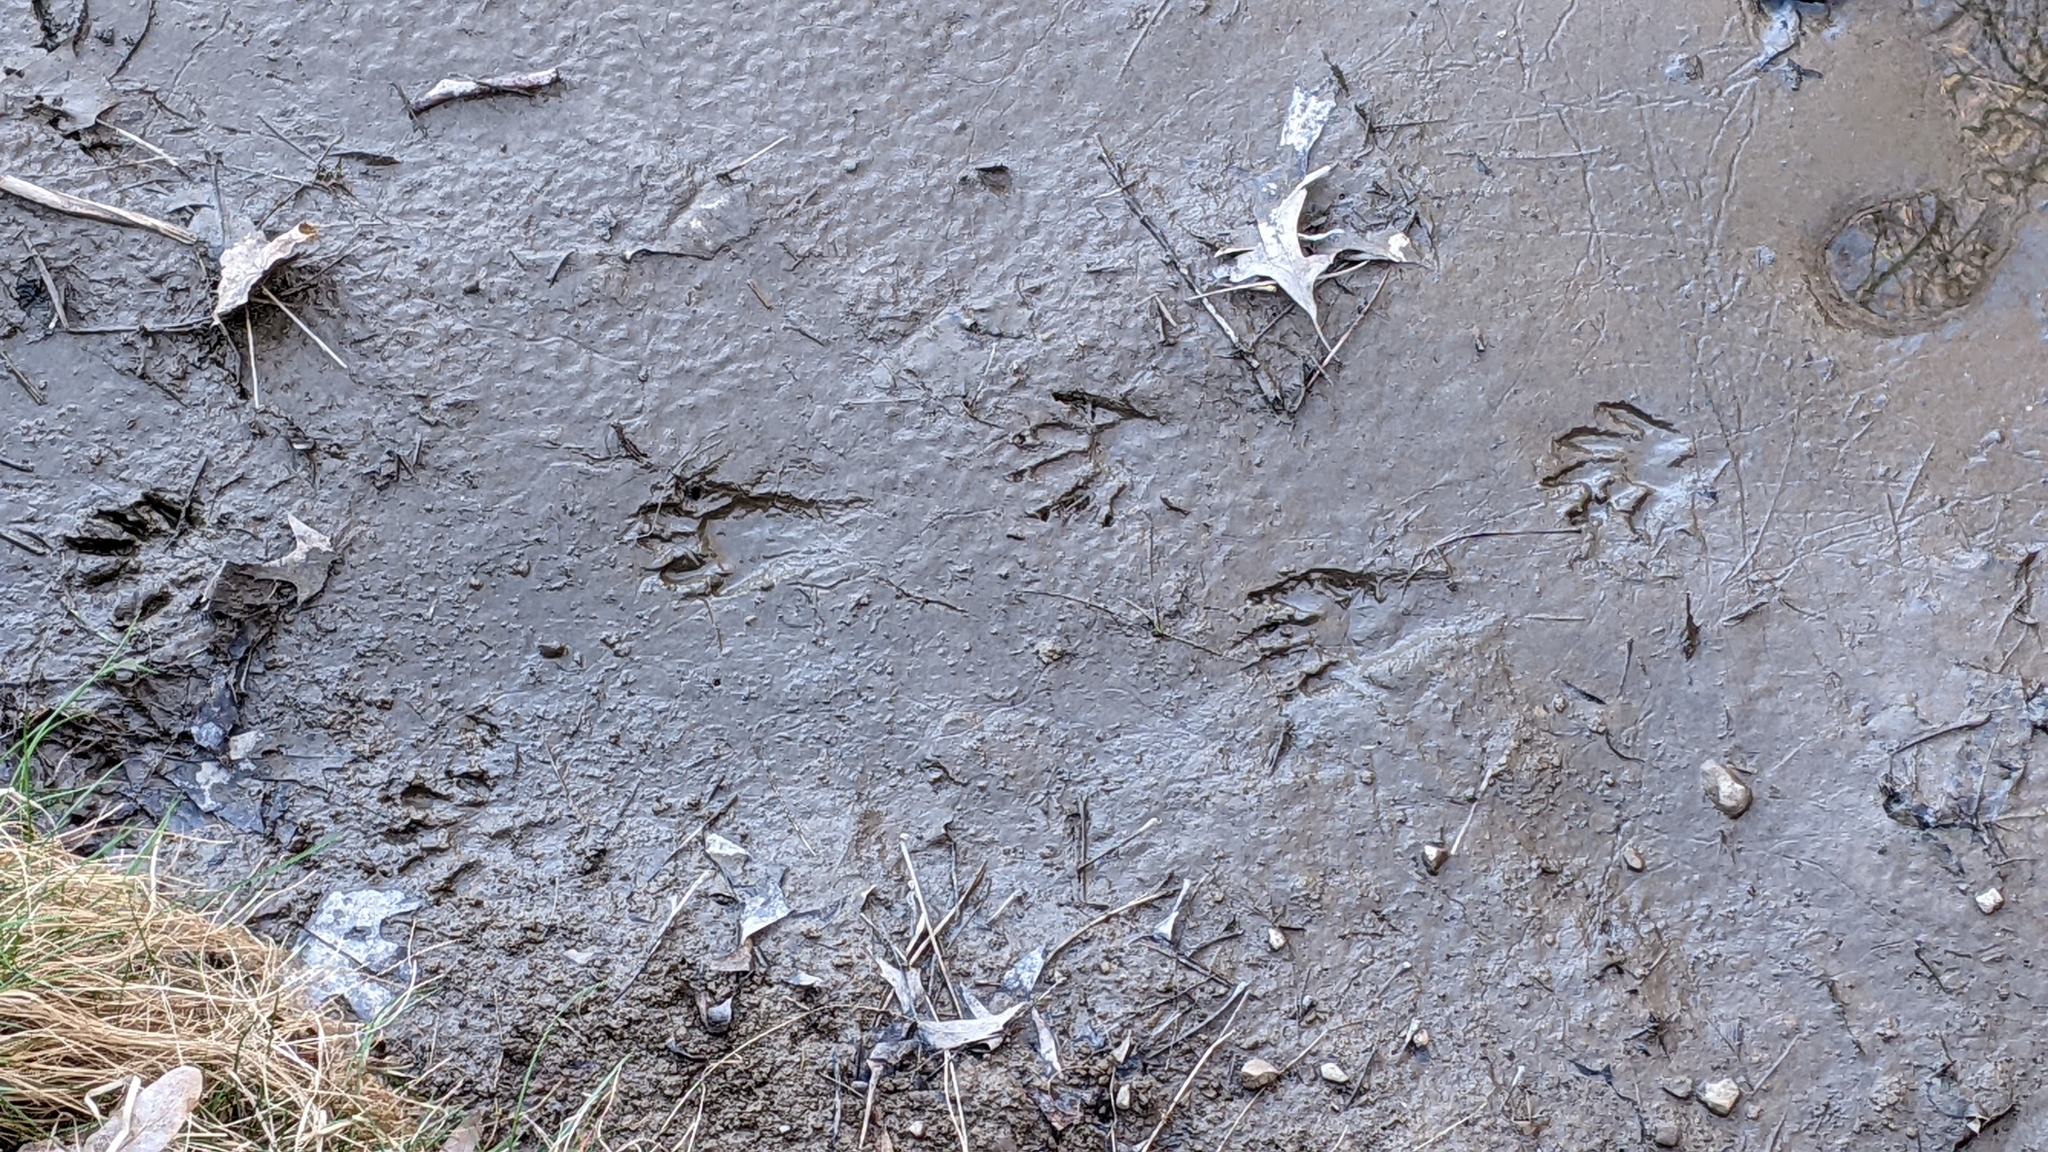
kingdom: Animalia
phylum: Chordata
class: Mammalia
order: Carnivora
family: Procyonidae
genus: Procyon
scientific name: Procyon lotor
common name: Raccoon
